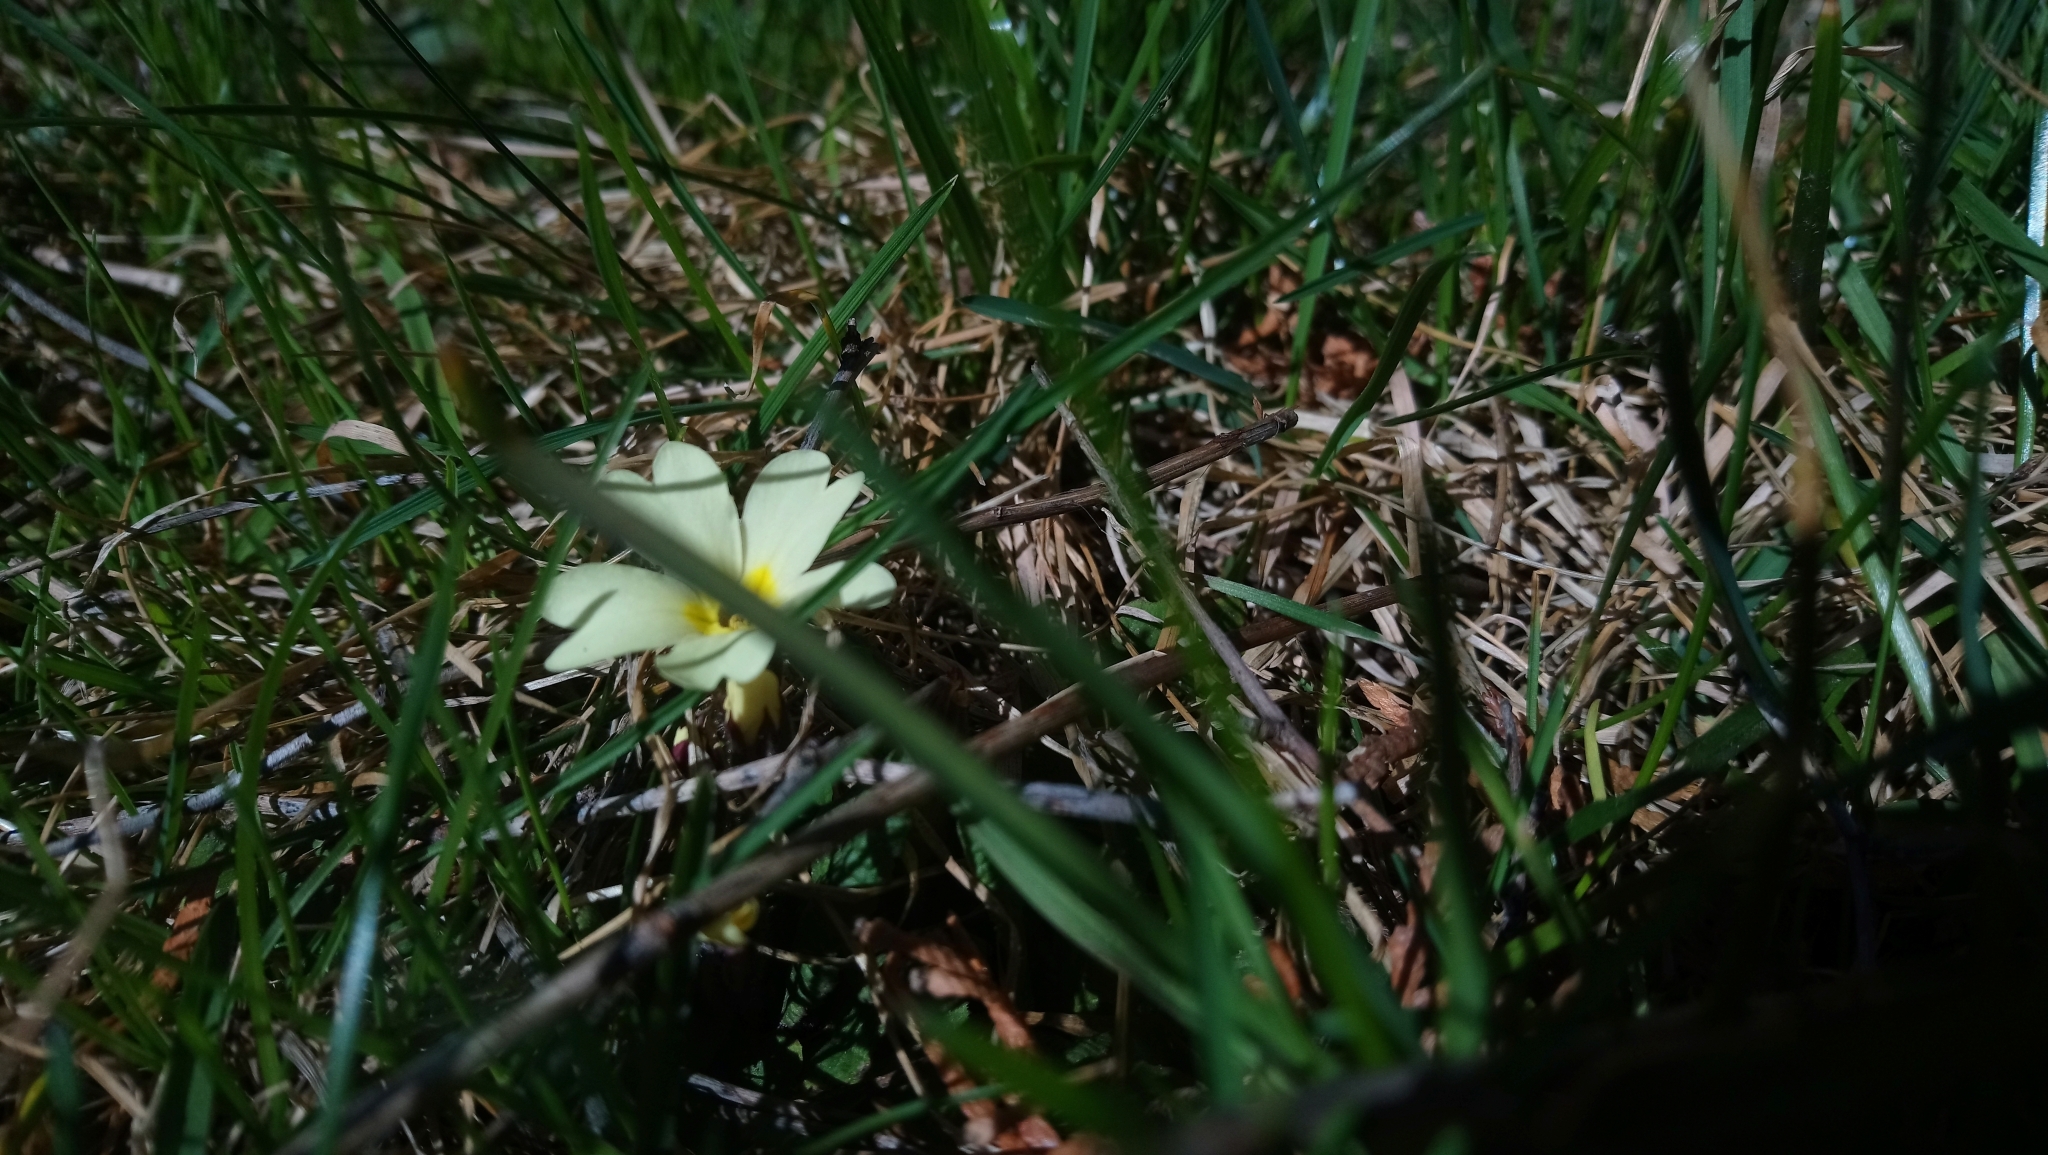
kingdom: Plantae
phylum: Tracheophyta
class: Magnoliopsida
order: Ericales
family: Primulaceae
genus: Primula
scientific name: Primula vulgaris
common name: Primrose
